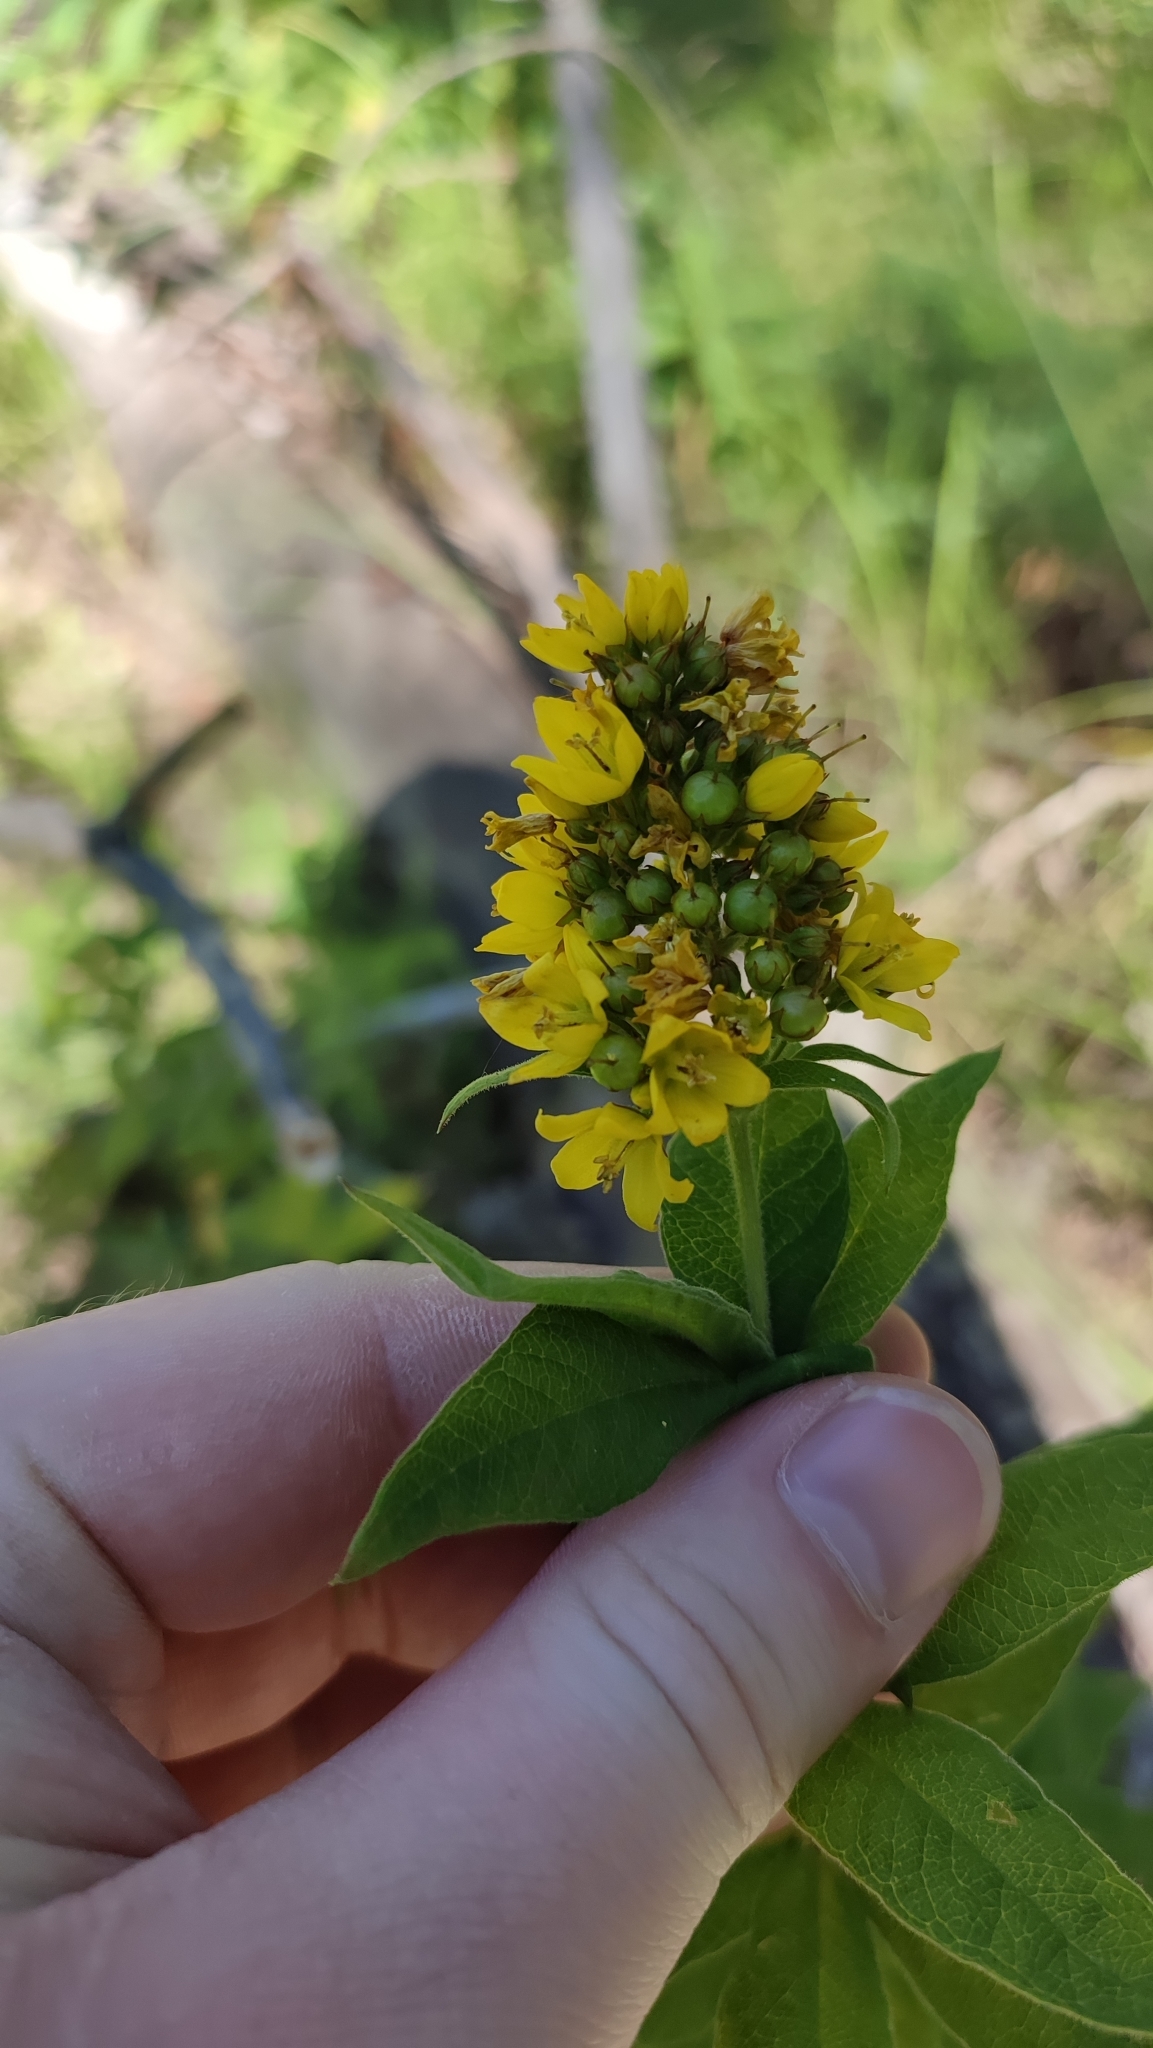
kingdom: Plantae
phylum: Tracheophyta
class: Magnoliopsida
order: Ericales
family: Primulaceae
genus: Lysimachia
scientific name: Lysimachia vulgaris
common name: Yellow loosestrife
